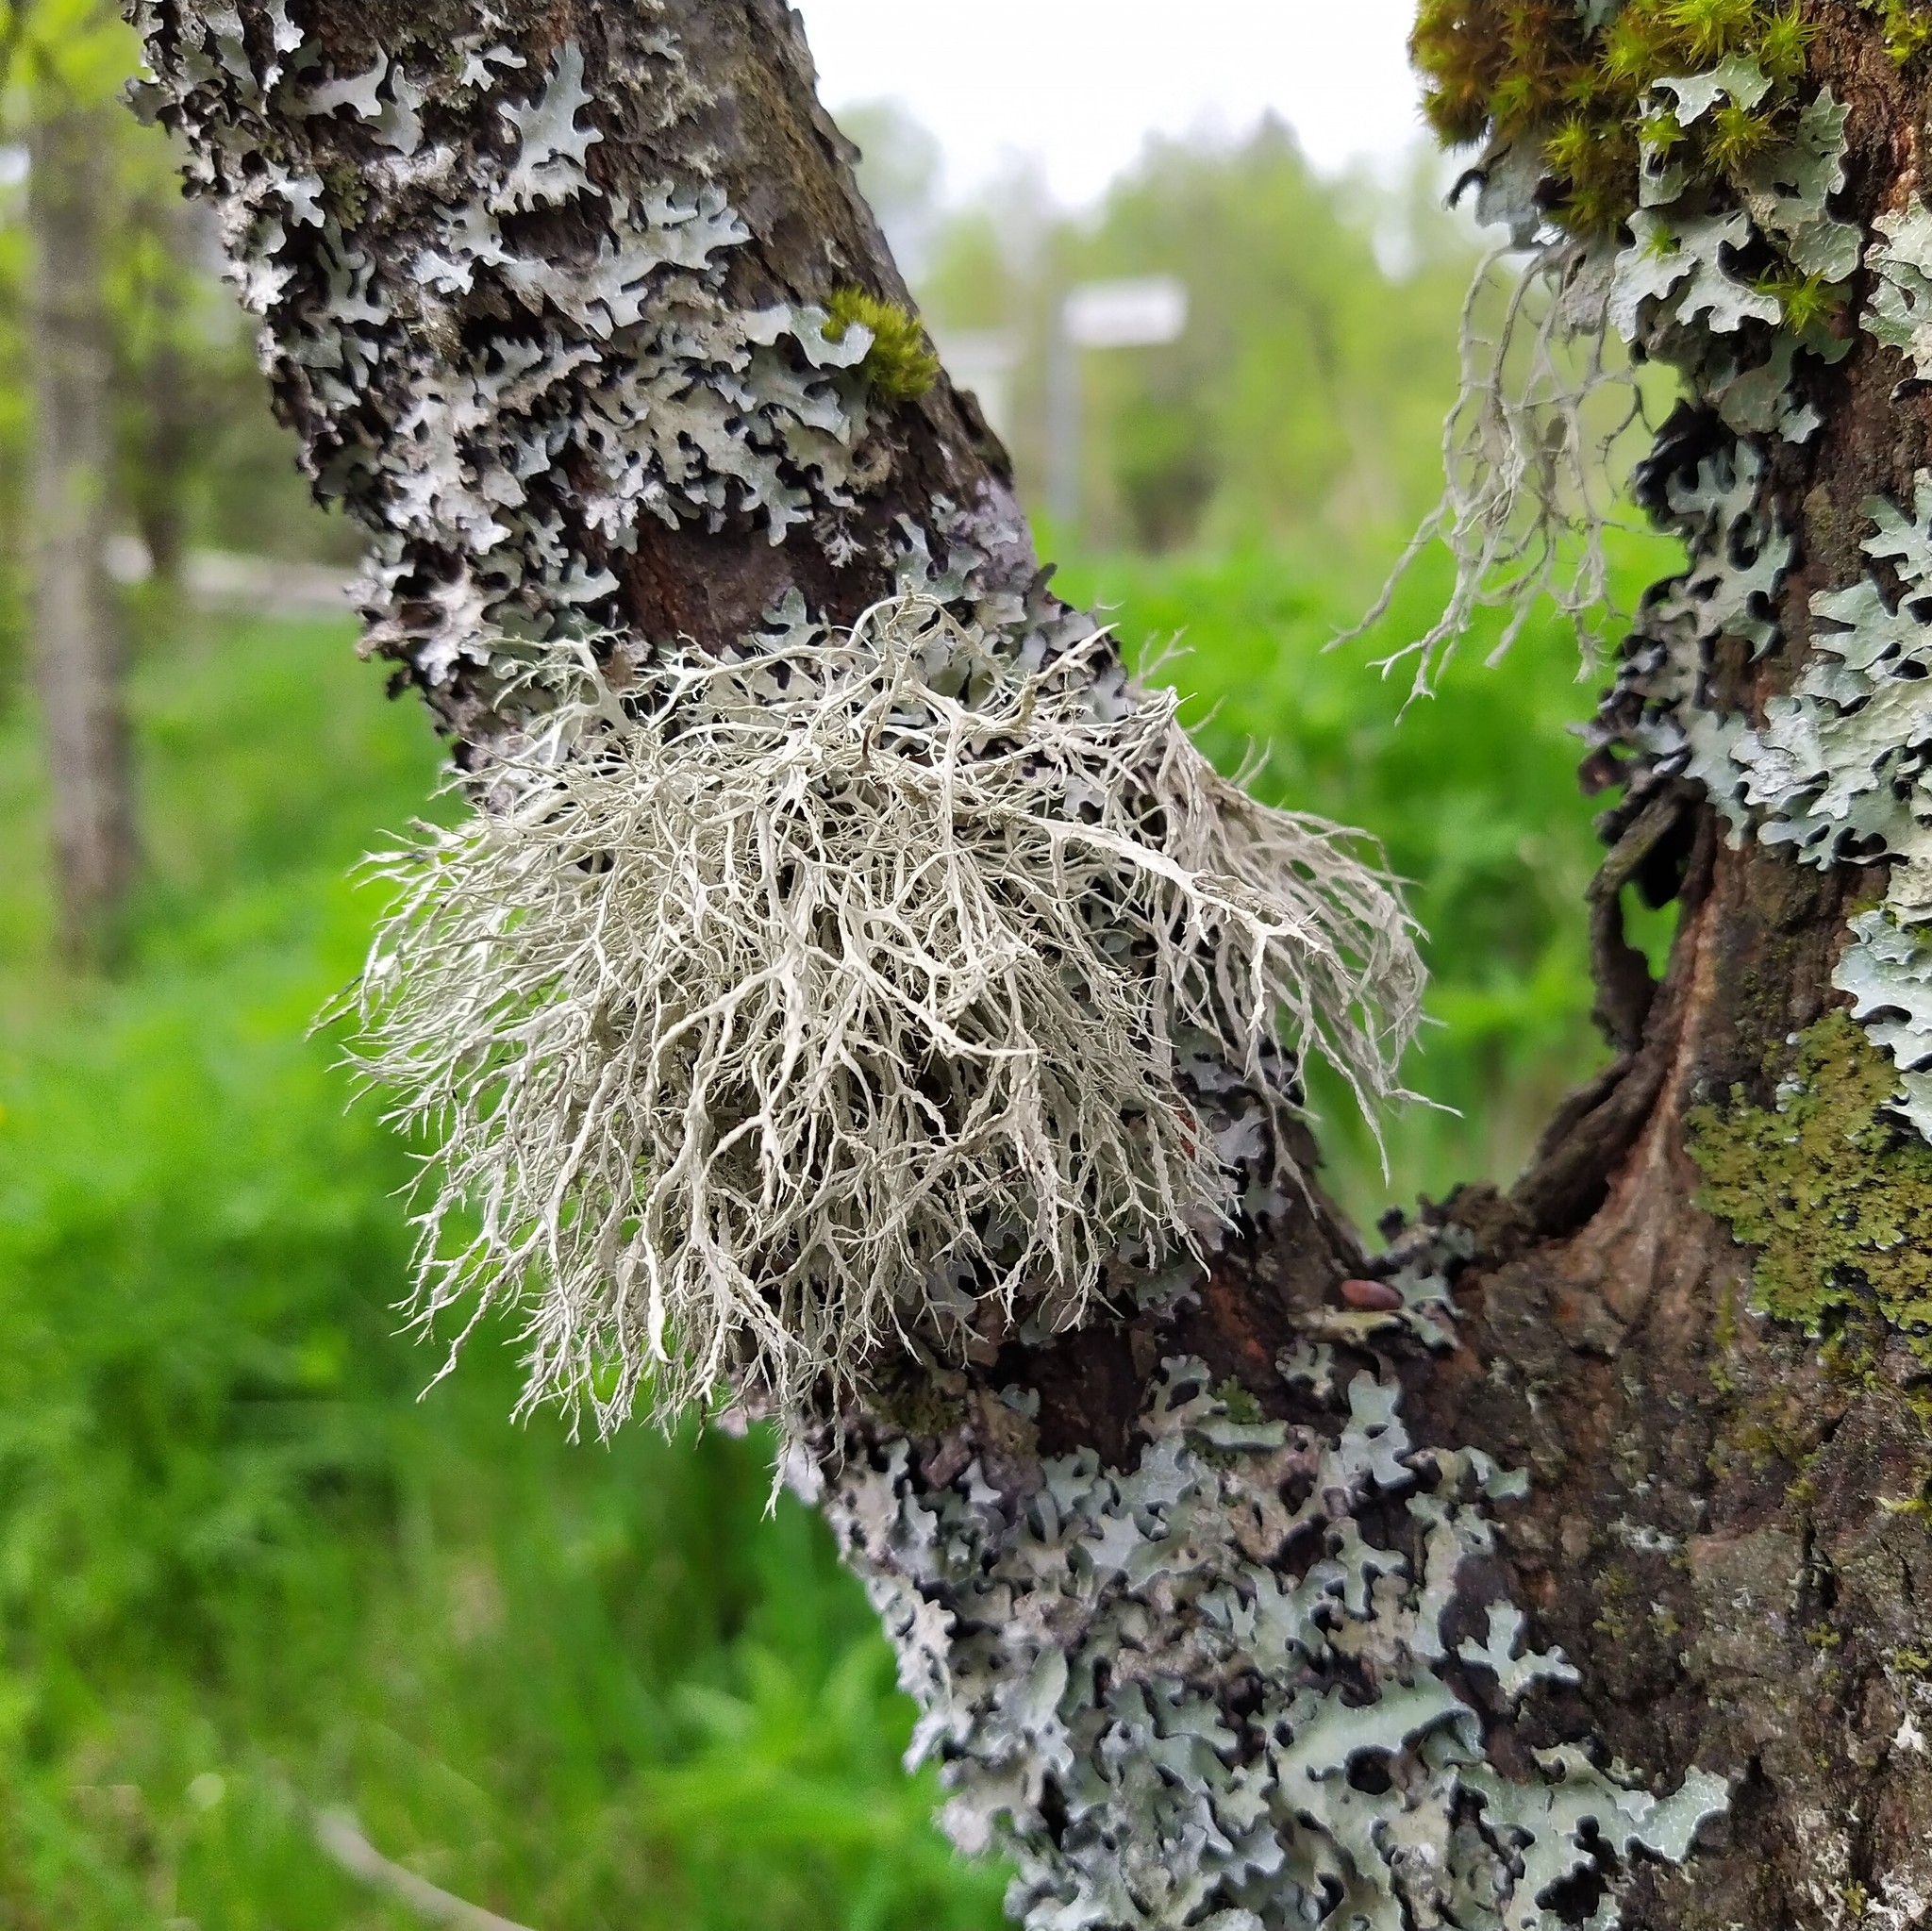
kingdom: Fungi
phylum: Ascomycota
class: Lecanoromycetes
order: Lecanorales
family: Ramalinaceae
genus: Ramalina
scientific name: Ramalina farinacea
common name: Farinose cartilage lichen
